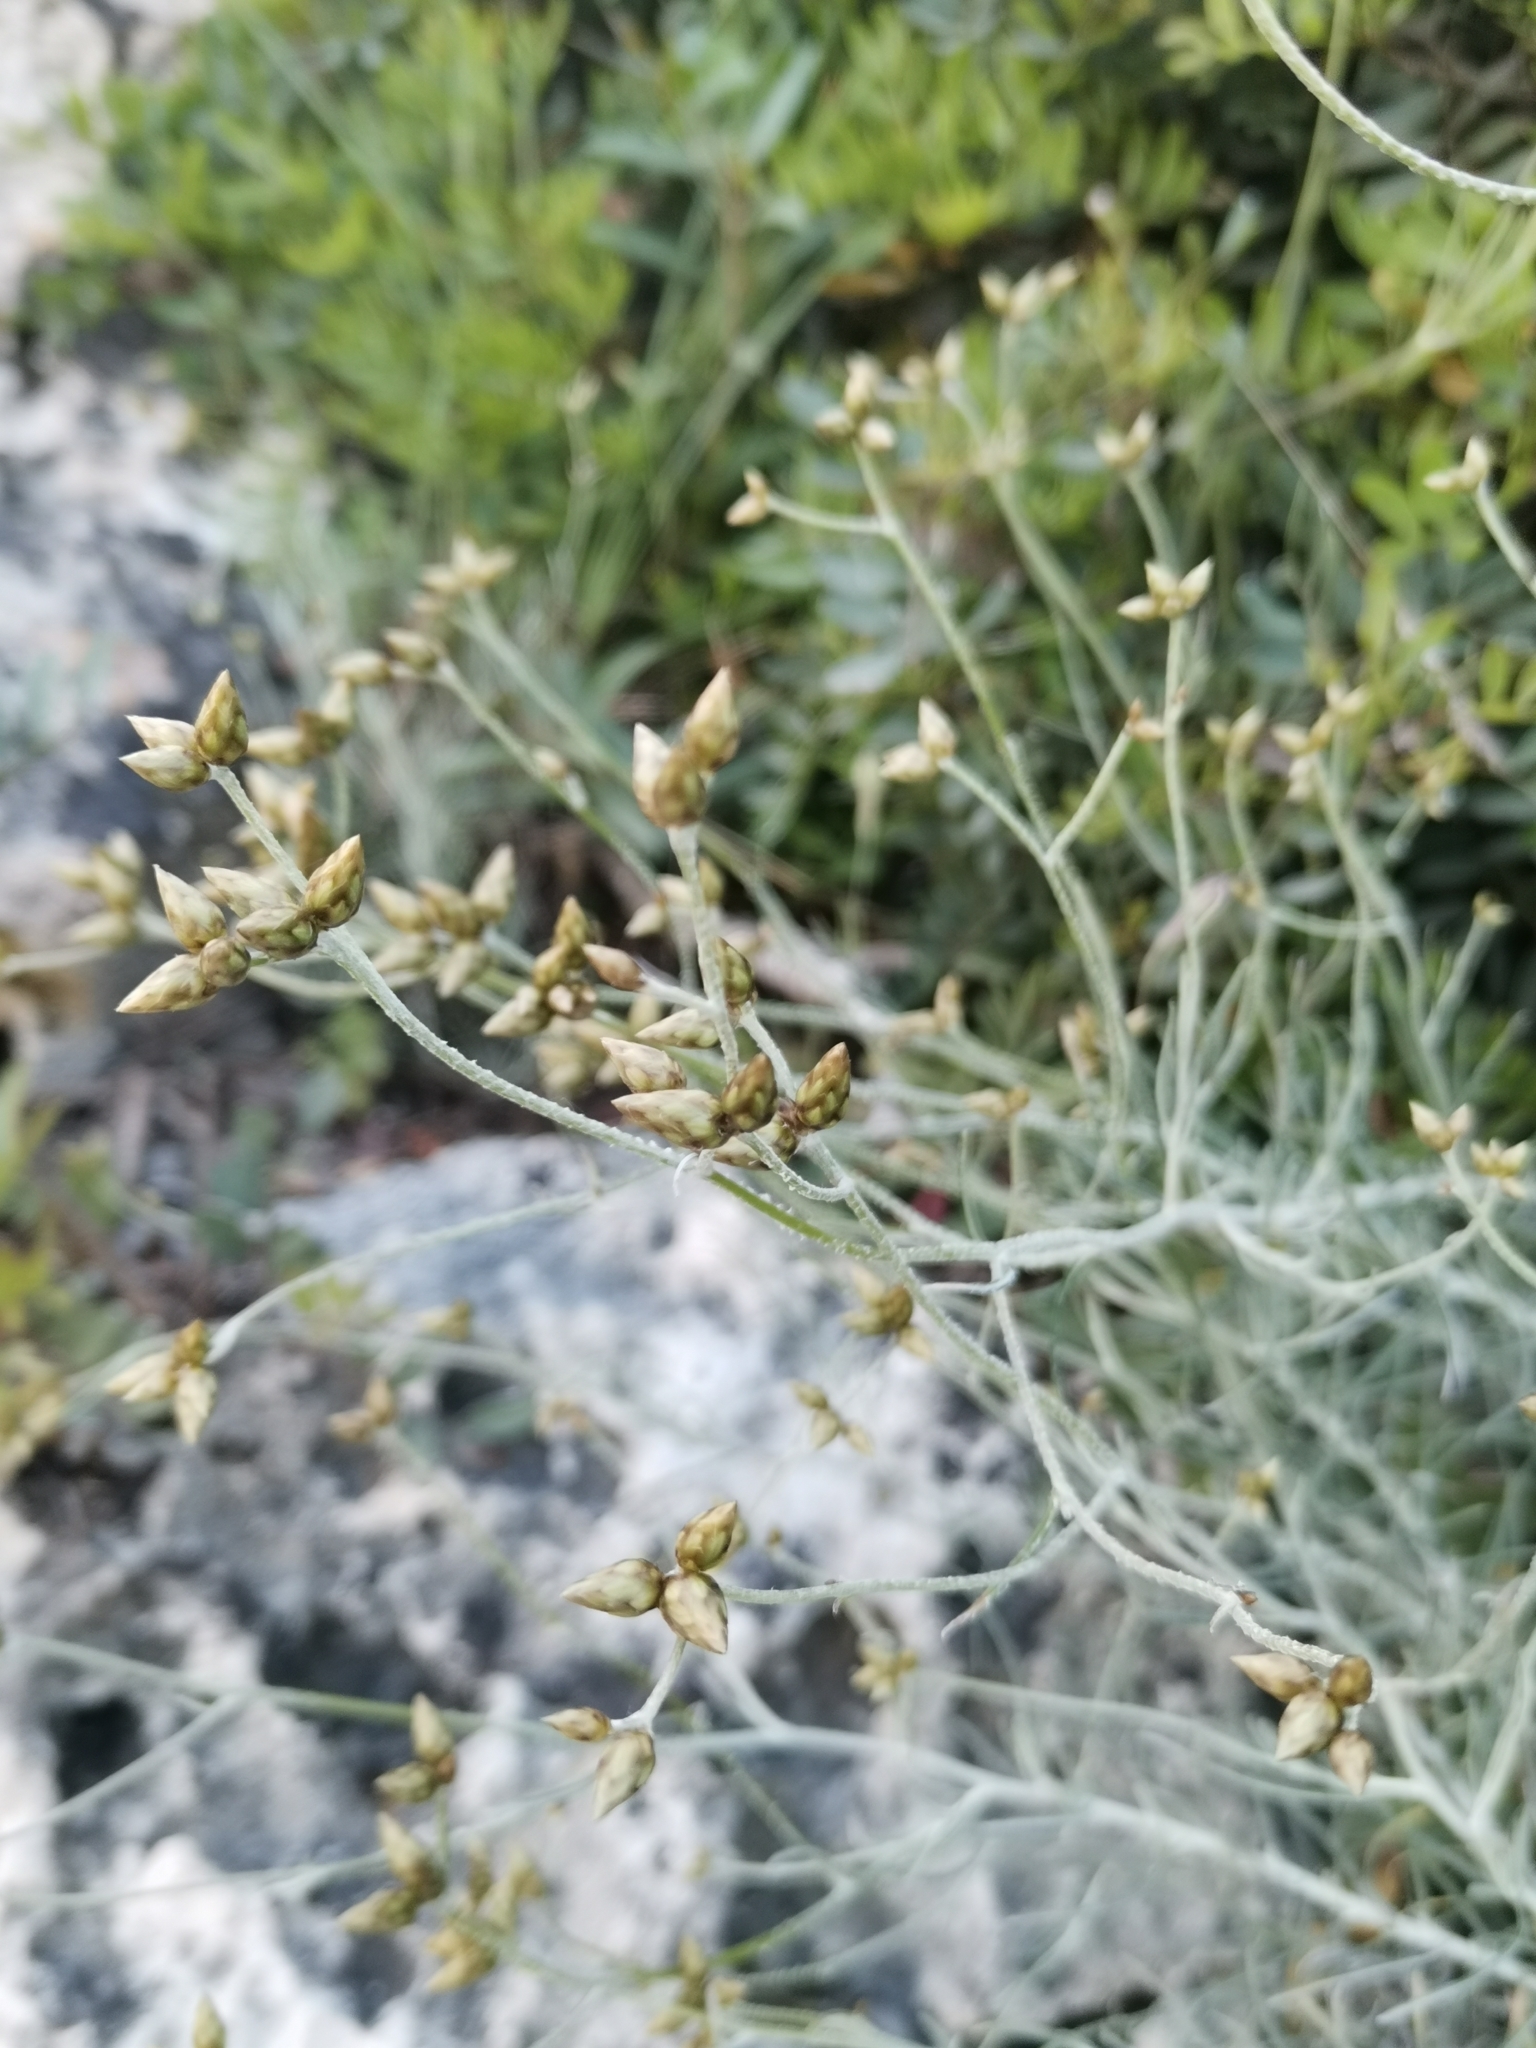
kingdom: Plantae
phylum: Tracheophyta
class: Magnoliopsida
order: Asterales
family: Asteraceae
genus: Phagnalon
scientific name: Phagnalon sordidum
